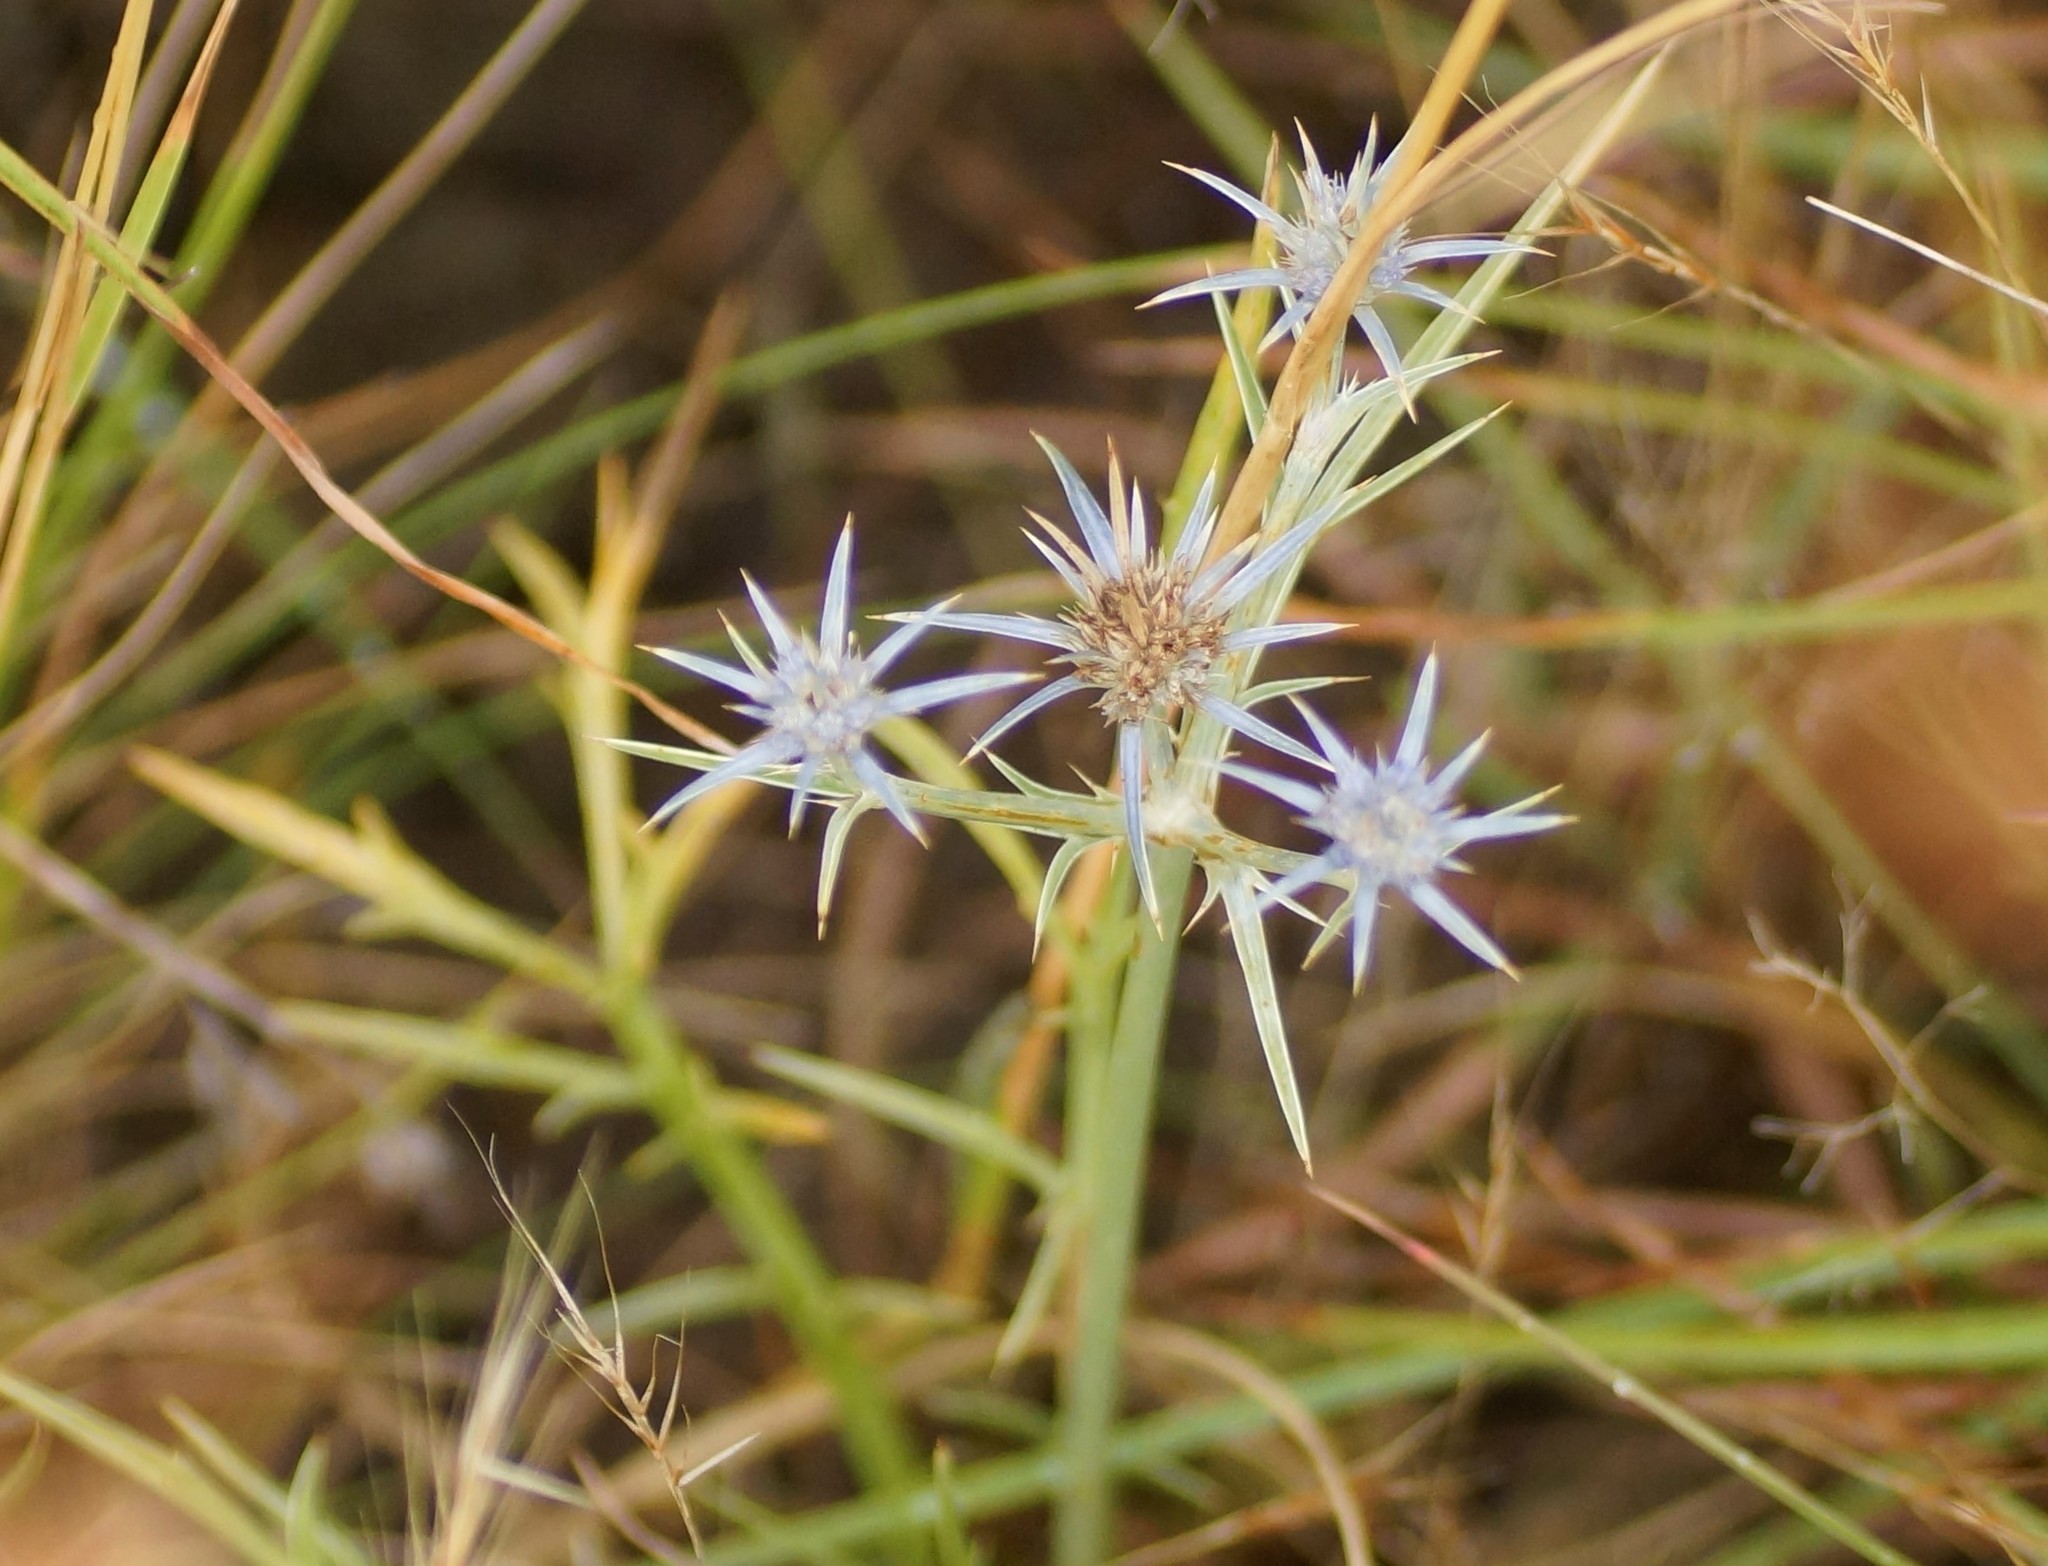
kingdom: Plantae
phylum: Tracheophyta
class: Magnoliopsida
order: Apiales
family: Apiaceae
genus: Eryngium
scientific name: Eryngium ovinum
